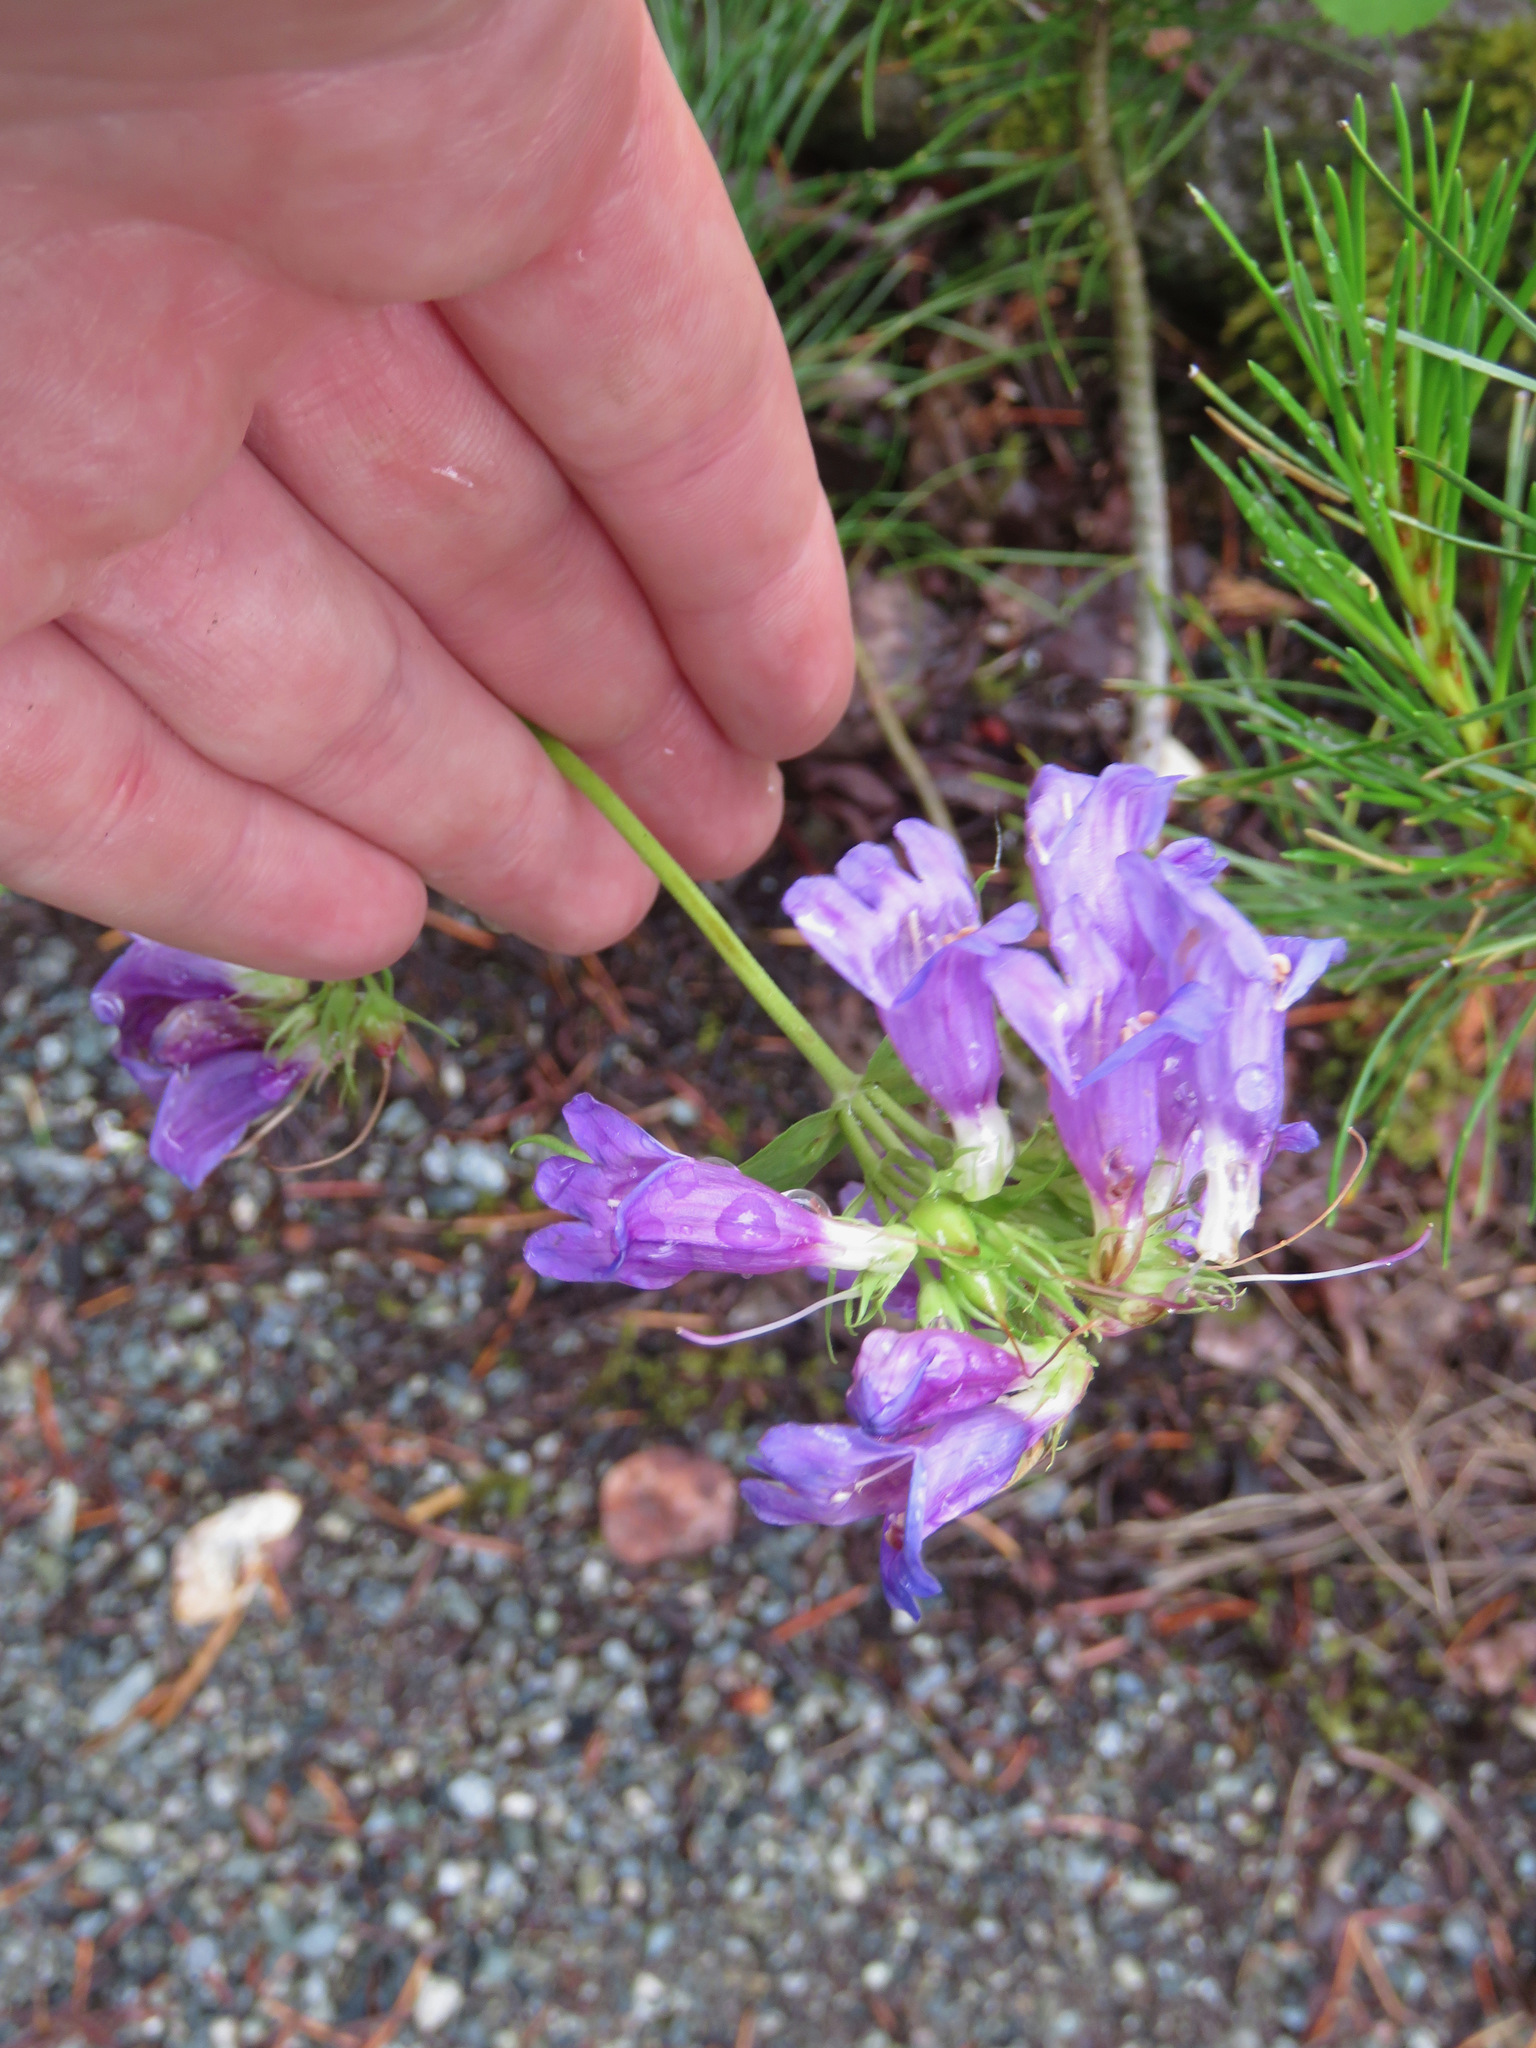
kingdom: Plantae
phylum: Tracheophyta
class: Magnoliopsida
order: Lamiales
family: Plantaginaceae
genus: Penstemon
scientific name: Penstemon serrulatus
